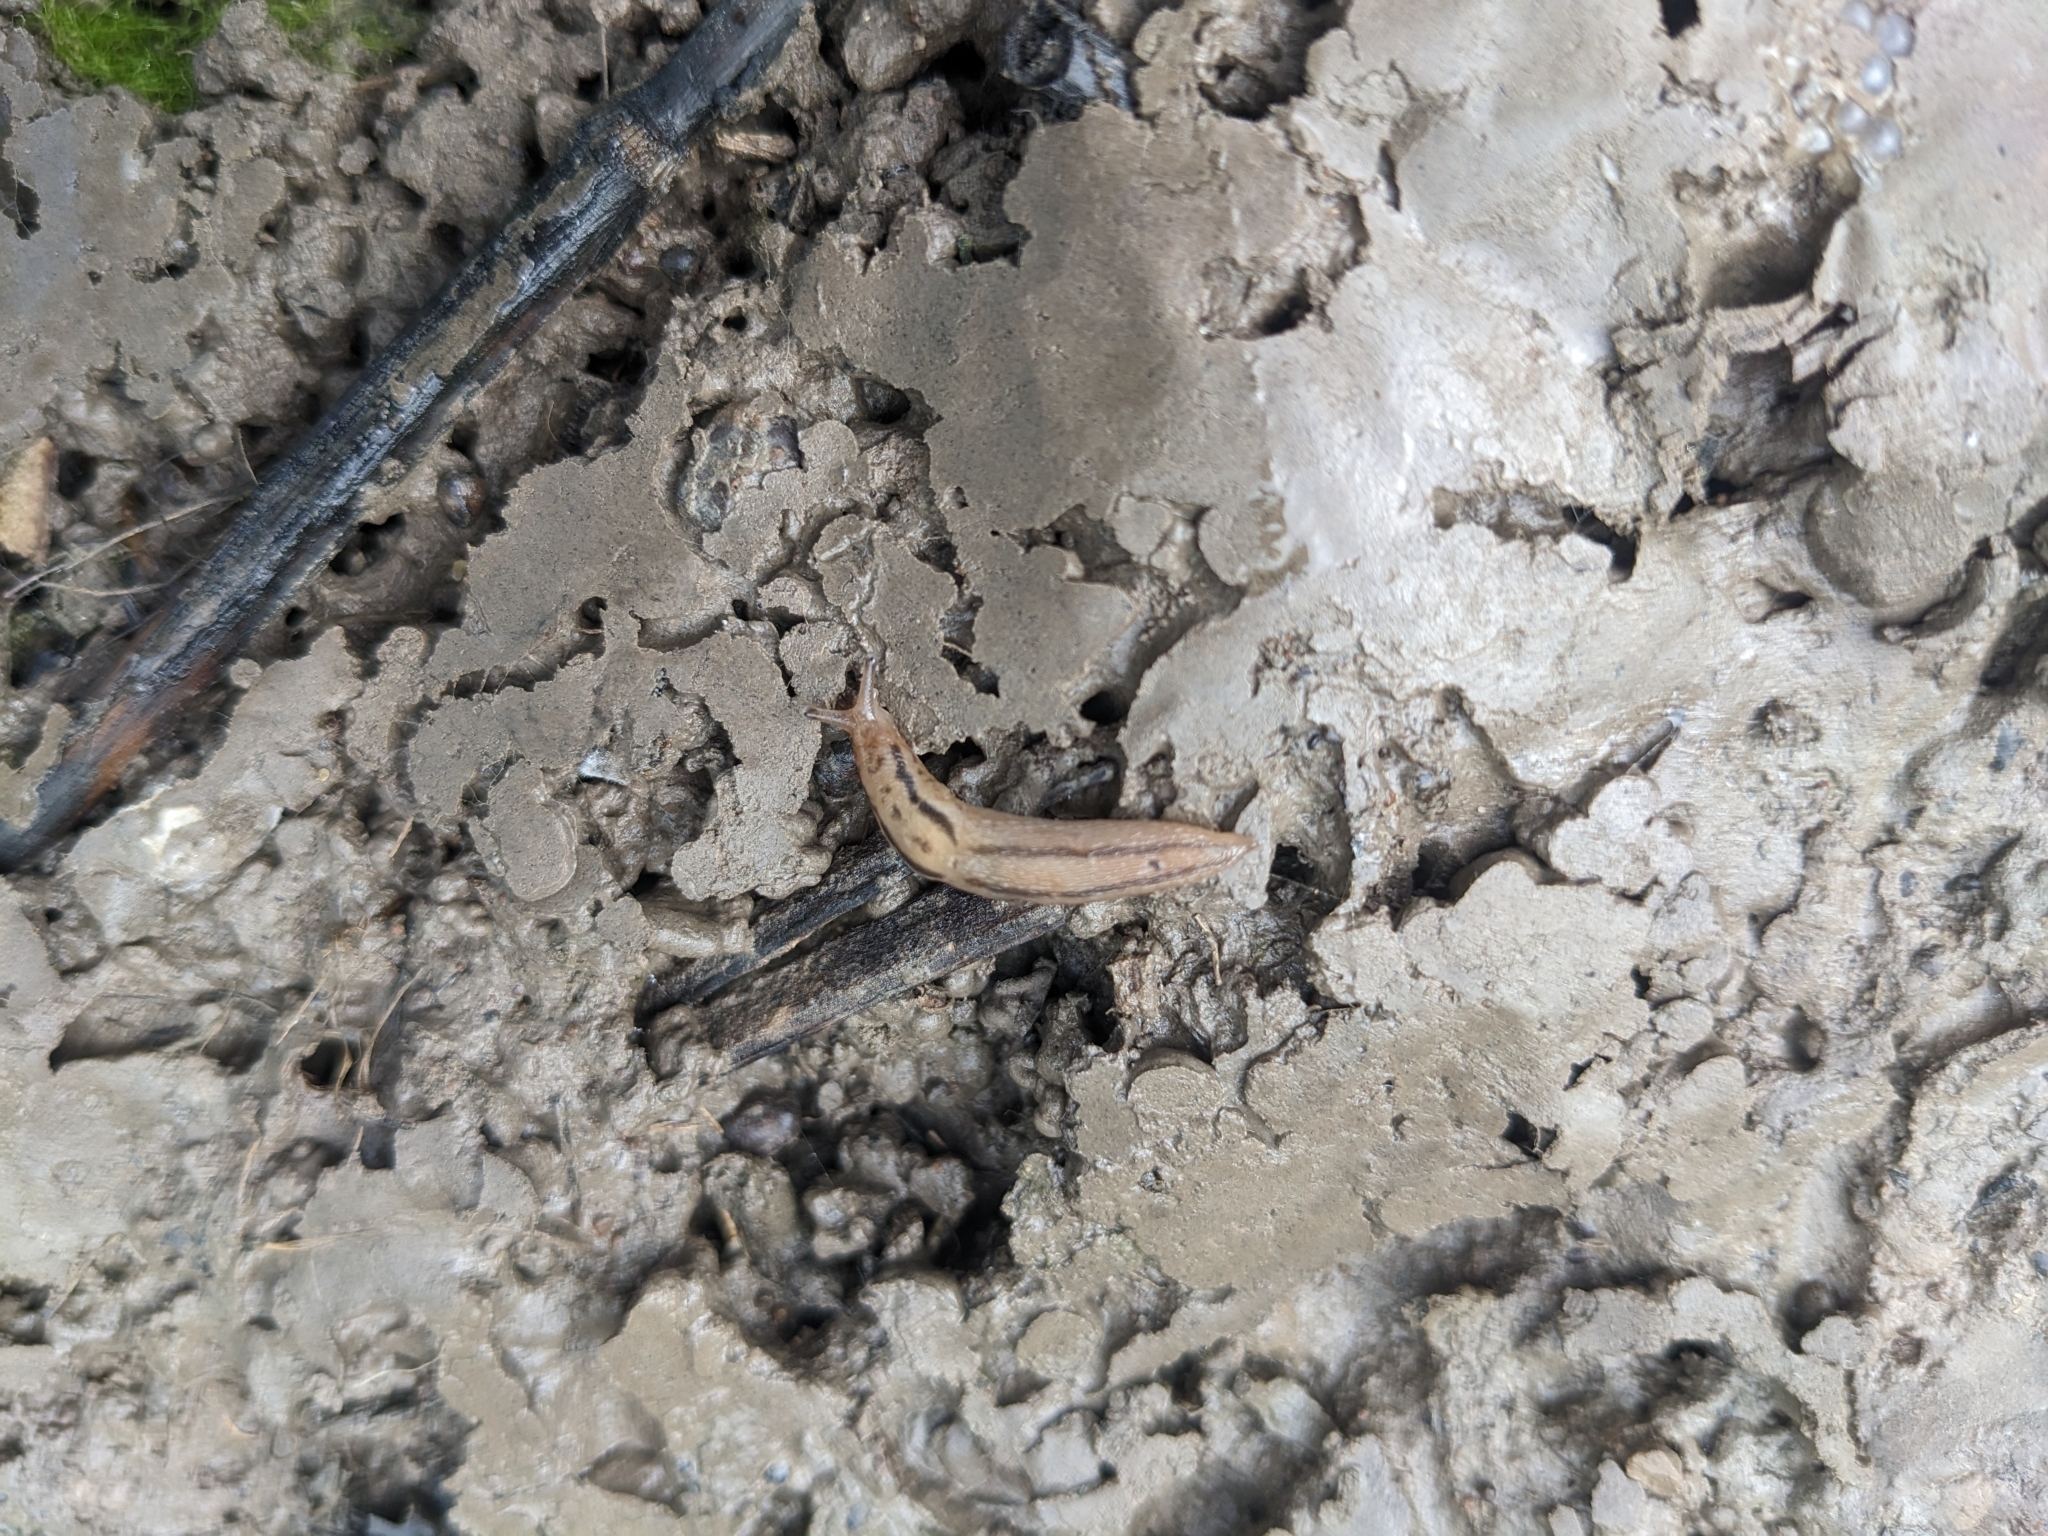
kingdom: Animalia
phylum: Mollusca
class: Gastropoda
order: Stylommatophora
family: Limacidae
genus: Ambigolimax
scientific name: Ambigolimax valentianus
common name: Greenhouse slug
